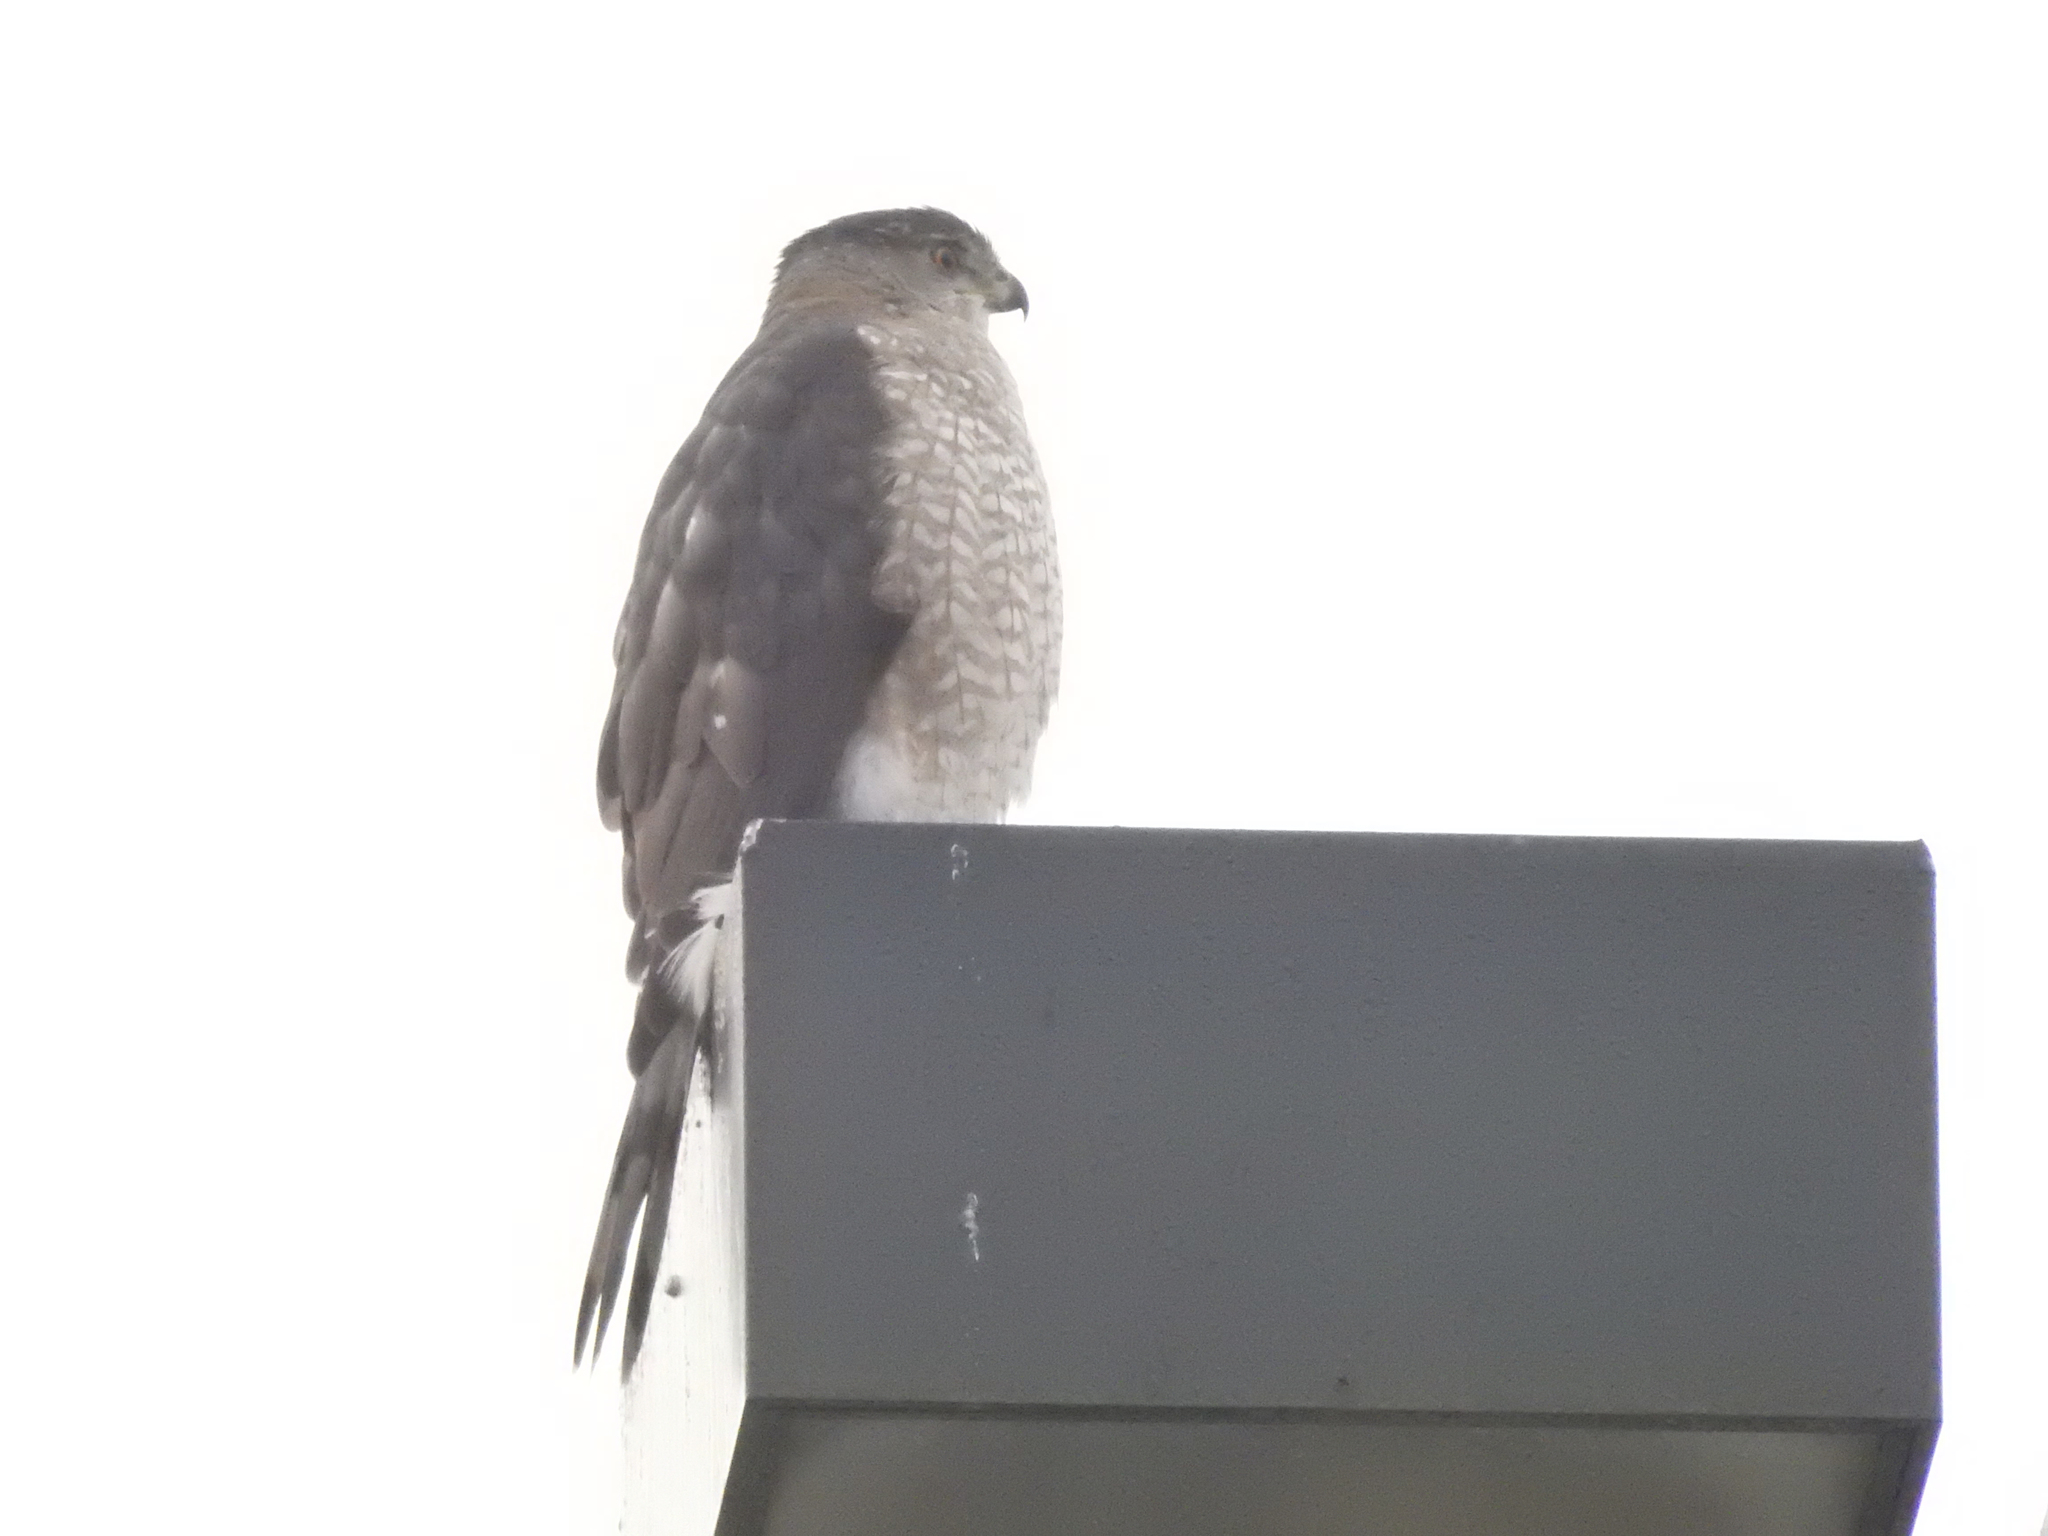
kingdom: Animalia
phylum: Chordata
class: Aves
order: Accipitriformes
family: Accipitridae
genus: Accipiter
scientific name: Accipiter cooperii
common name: Cooper's hawk
